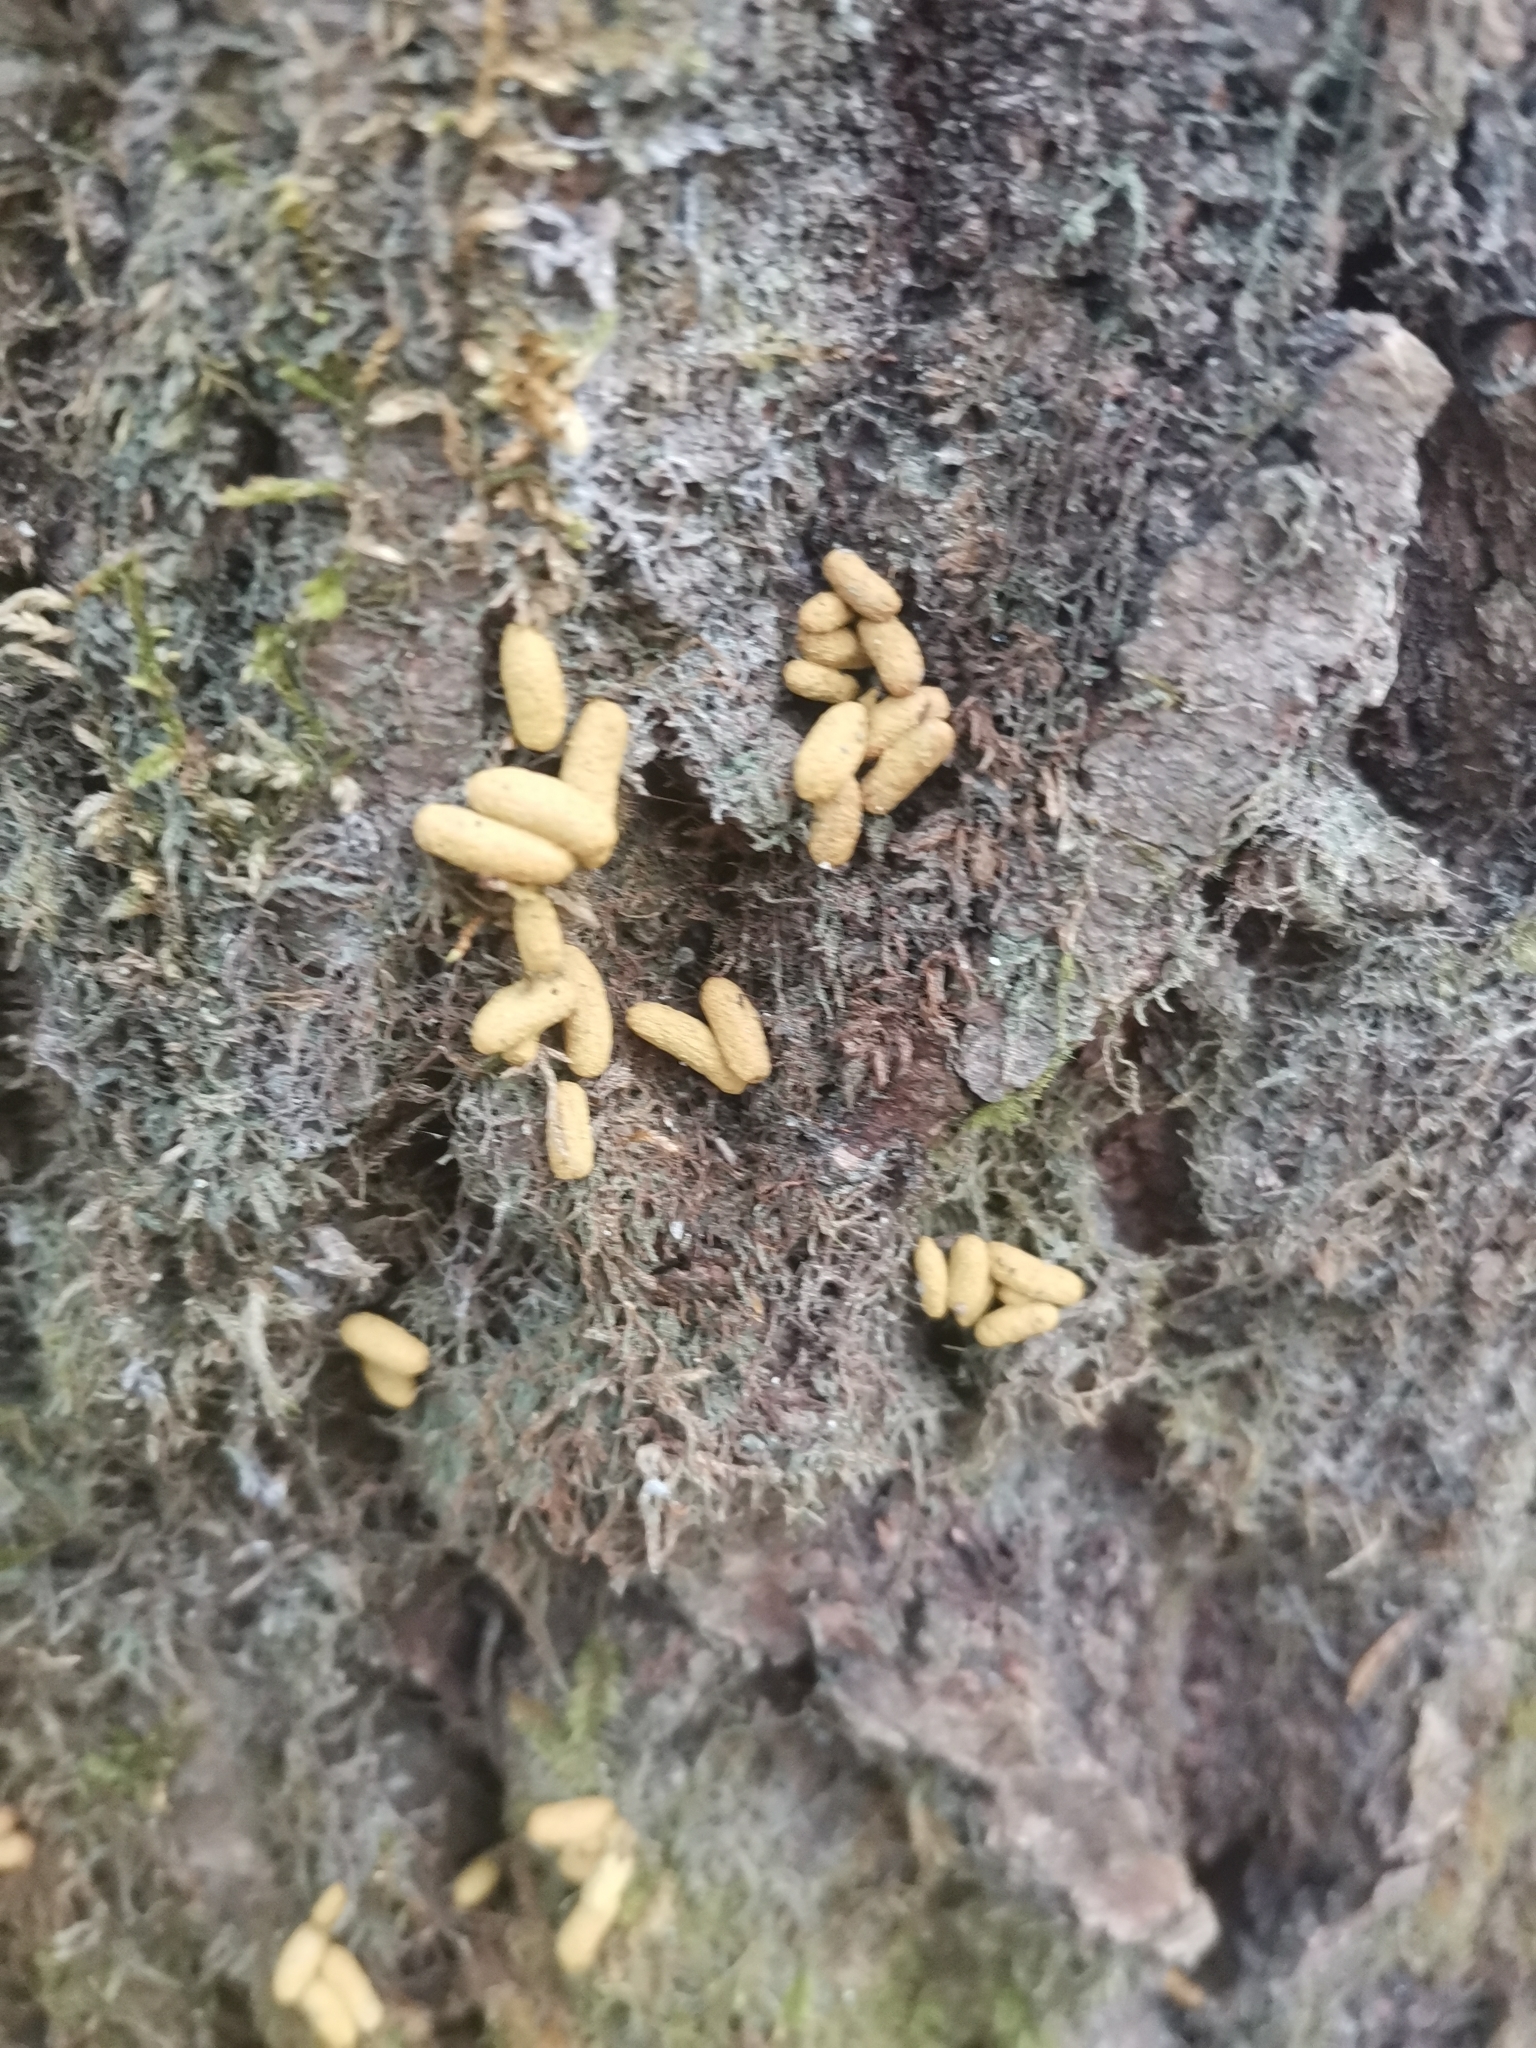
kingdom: Animalia
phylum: Chordata
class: Mammalia
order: Rodentia
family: Sciuridae
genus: Pteromys
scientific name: Pteromys volans
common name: Siberian flying squirrel
